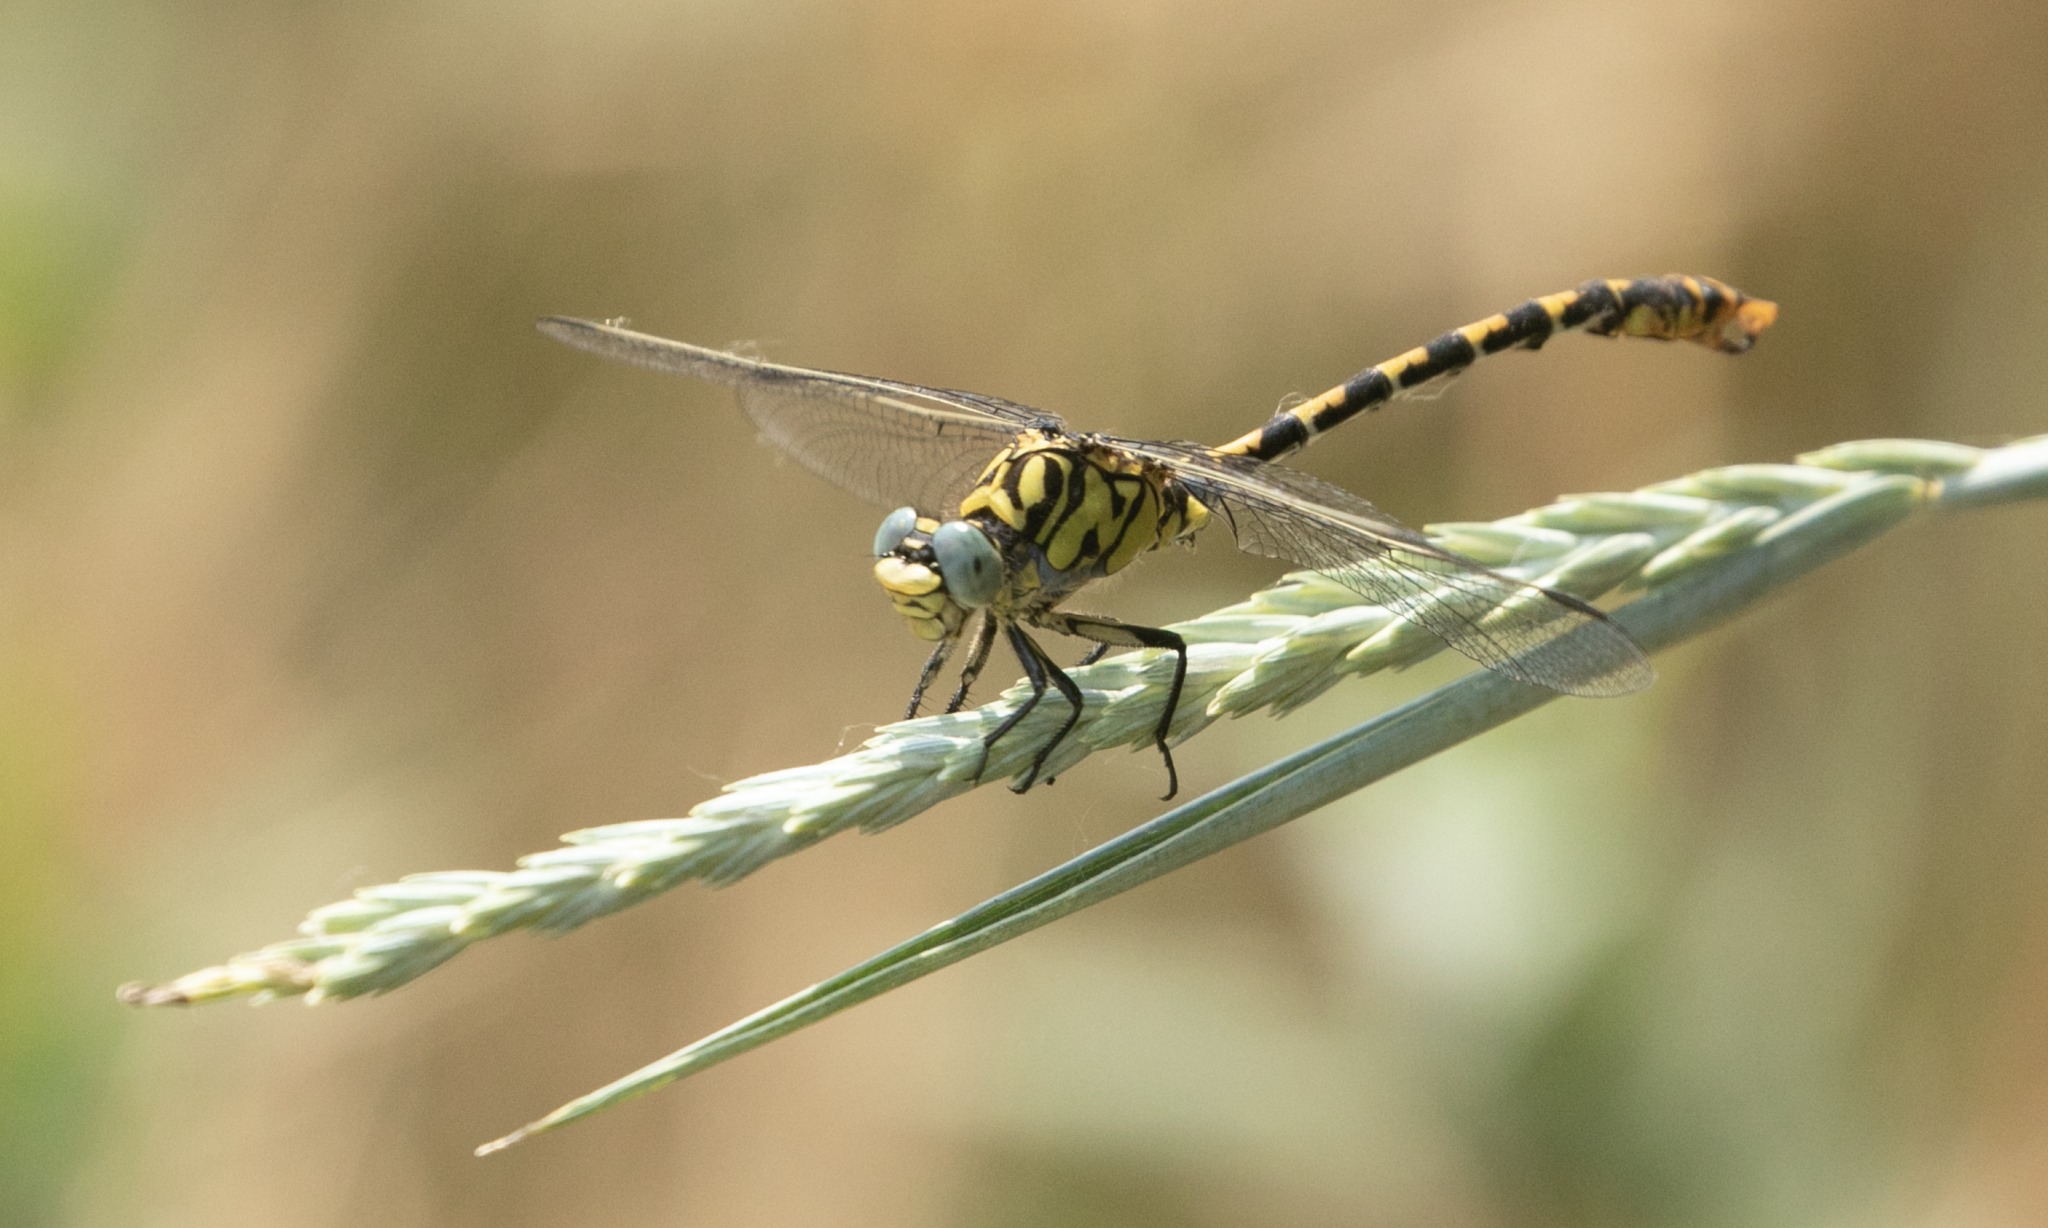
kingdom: Animalia
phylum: Arthropoda
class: Insecta
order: Odonata
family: Gomphidae
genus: Onychogomphus
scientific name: Onychogomphus forcipatus
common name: Small pincertail
